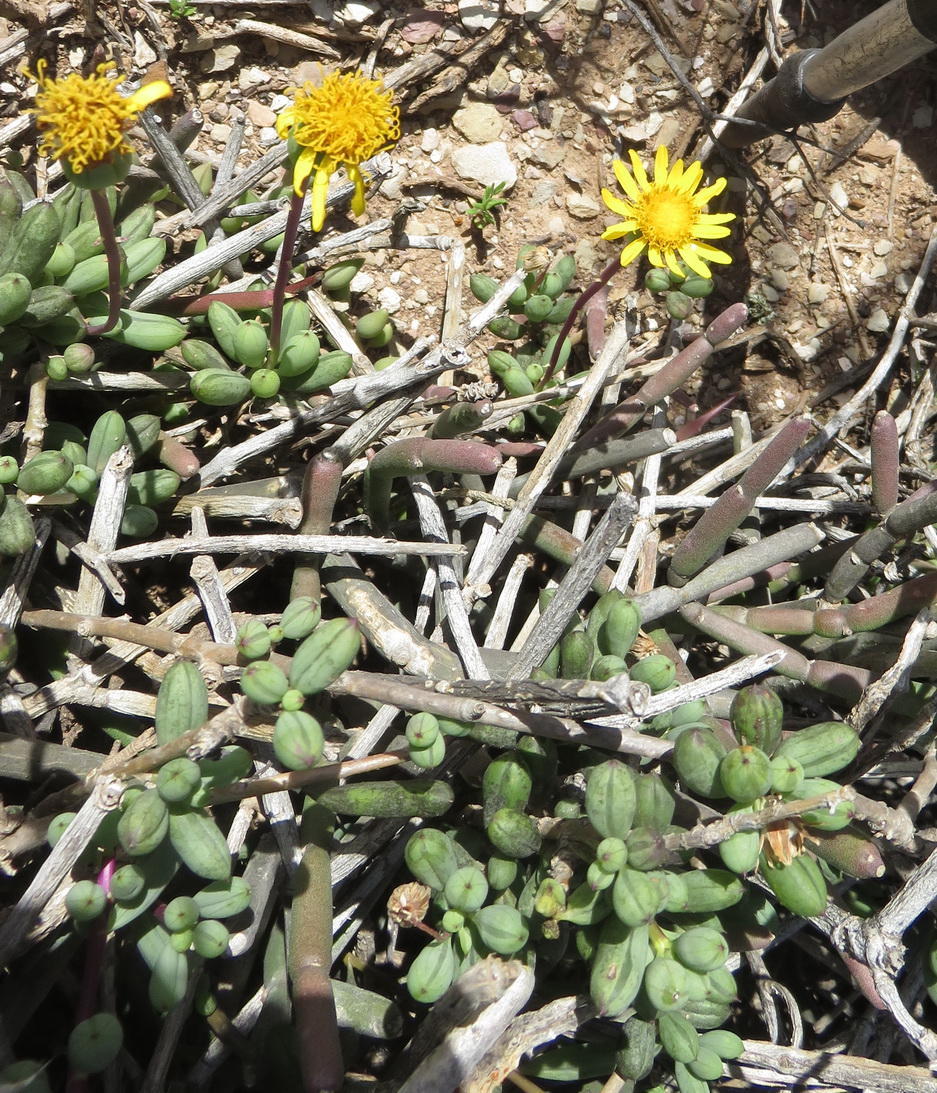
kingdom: Plantae
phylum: Tracheophyta
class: Magnoliopsida
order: Asterales
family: Asteraceae
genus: Senecio
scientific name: Senecio abbreviatus
